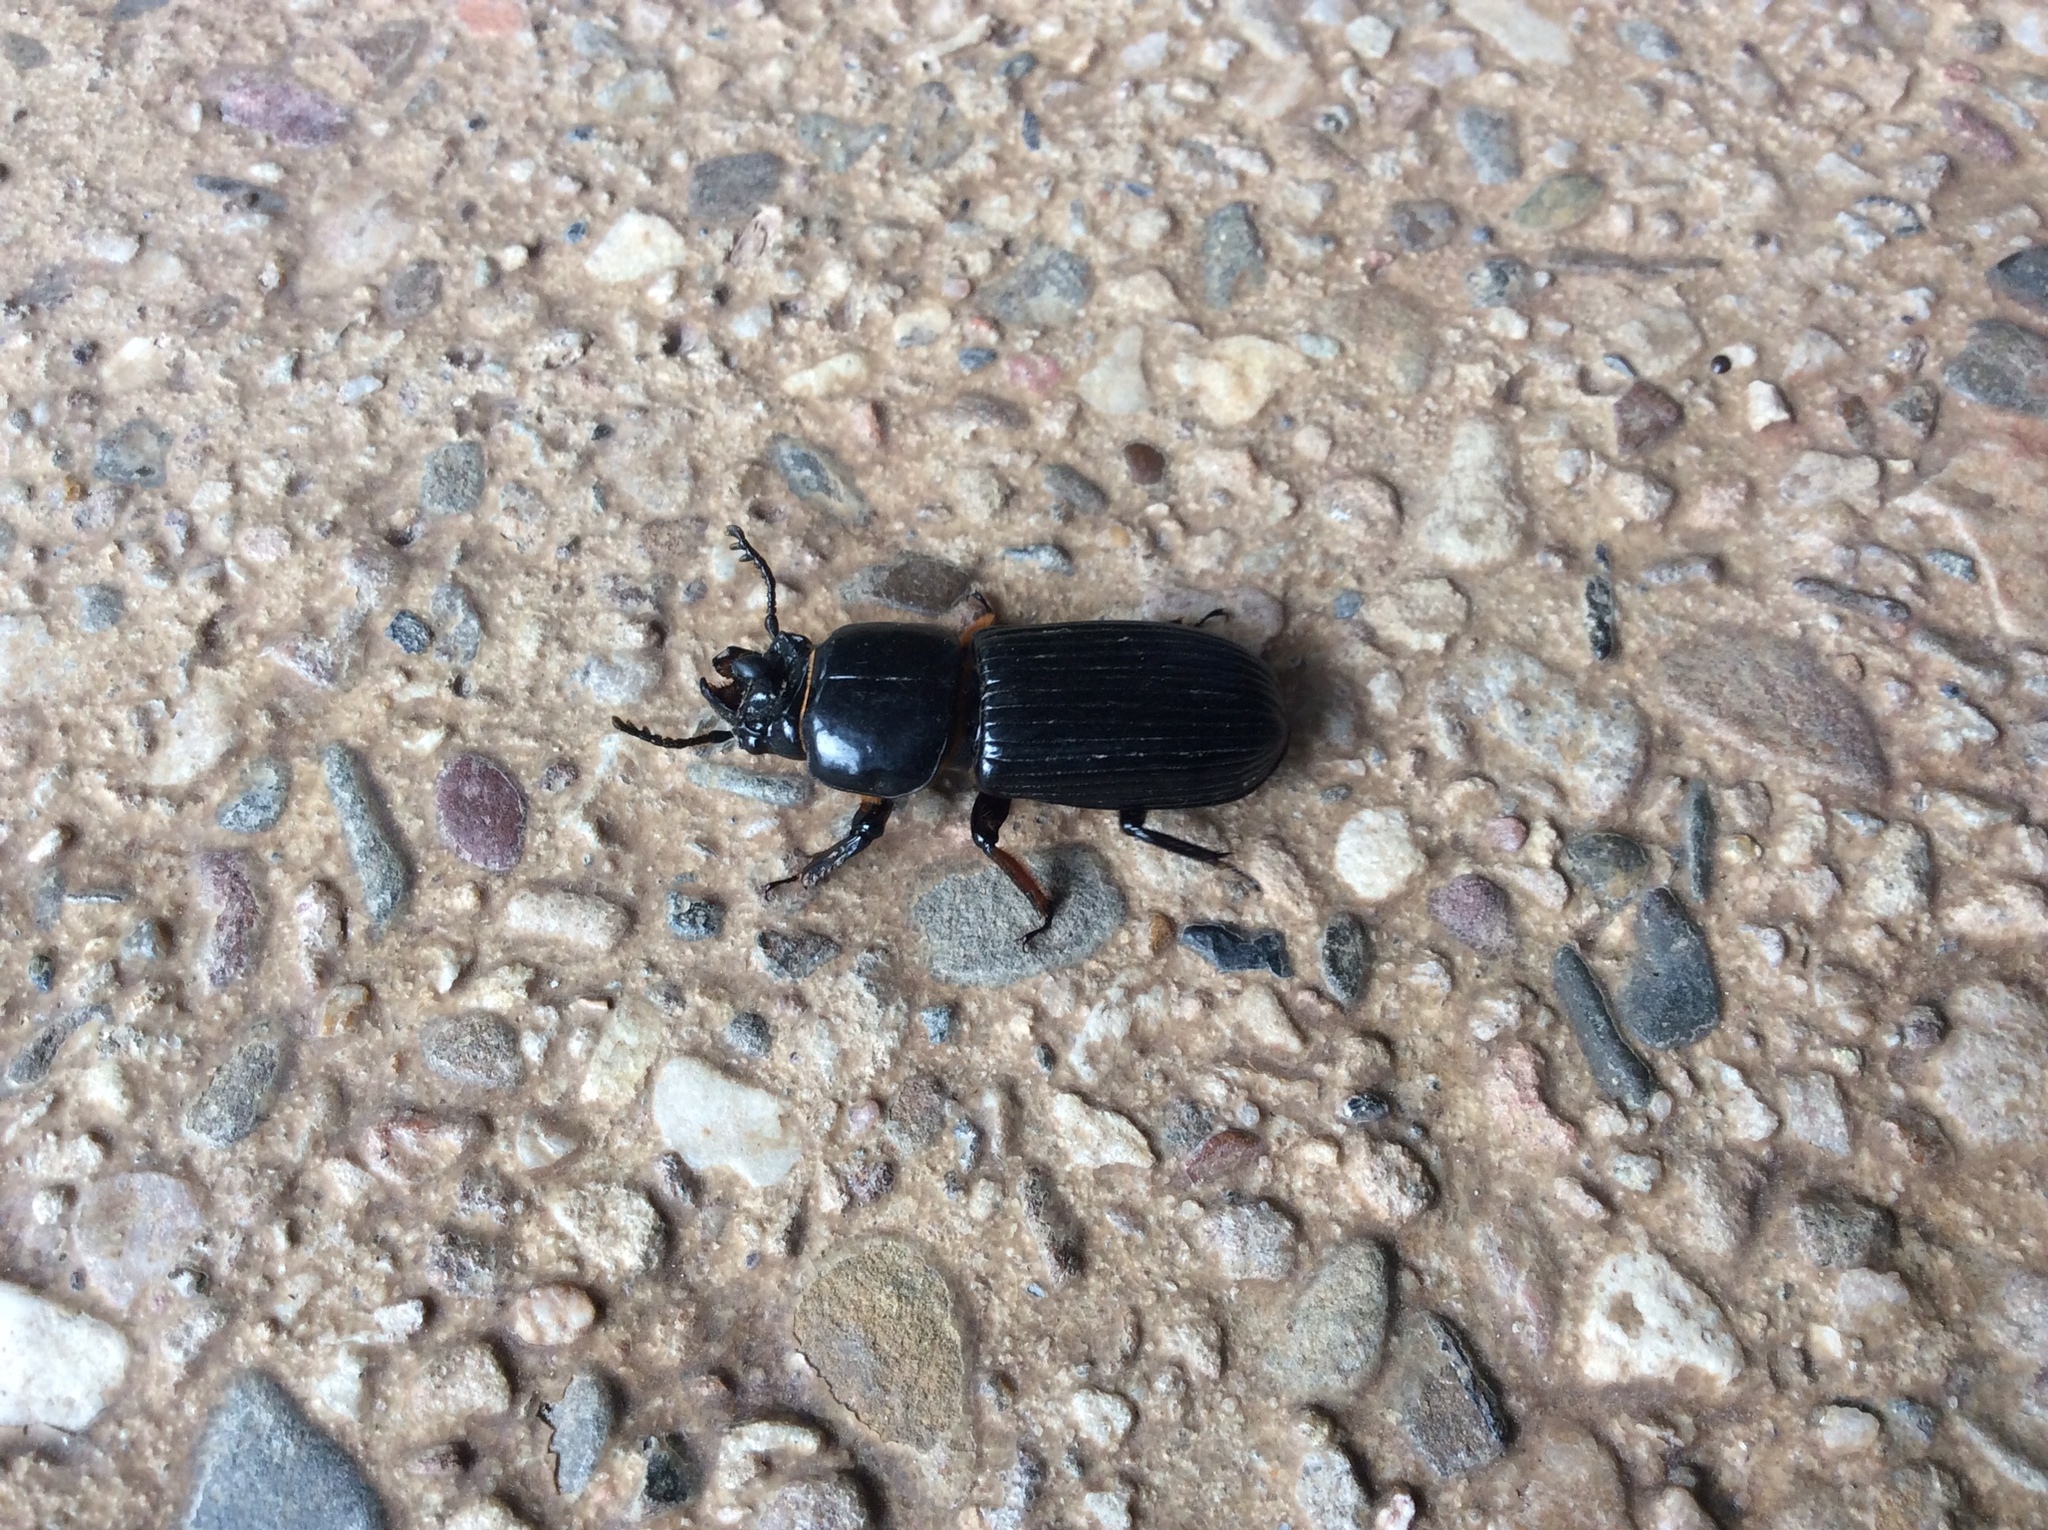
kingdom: Animalia
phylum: Arthropoda
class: Insecta
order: Coleoptera
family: Passalidae
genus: Odontotaenius
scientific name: Odontotaenius disjunctus
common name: Patent leather beetle
